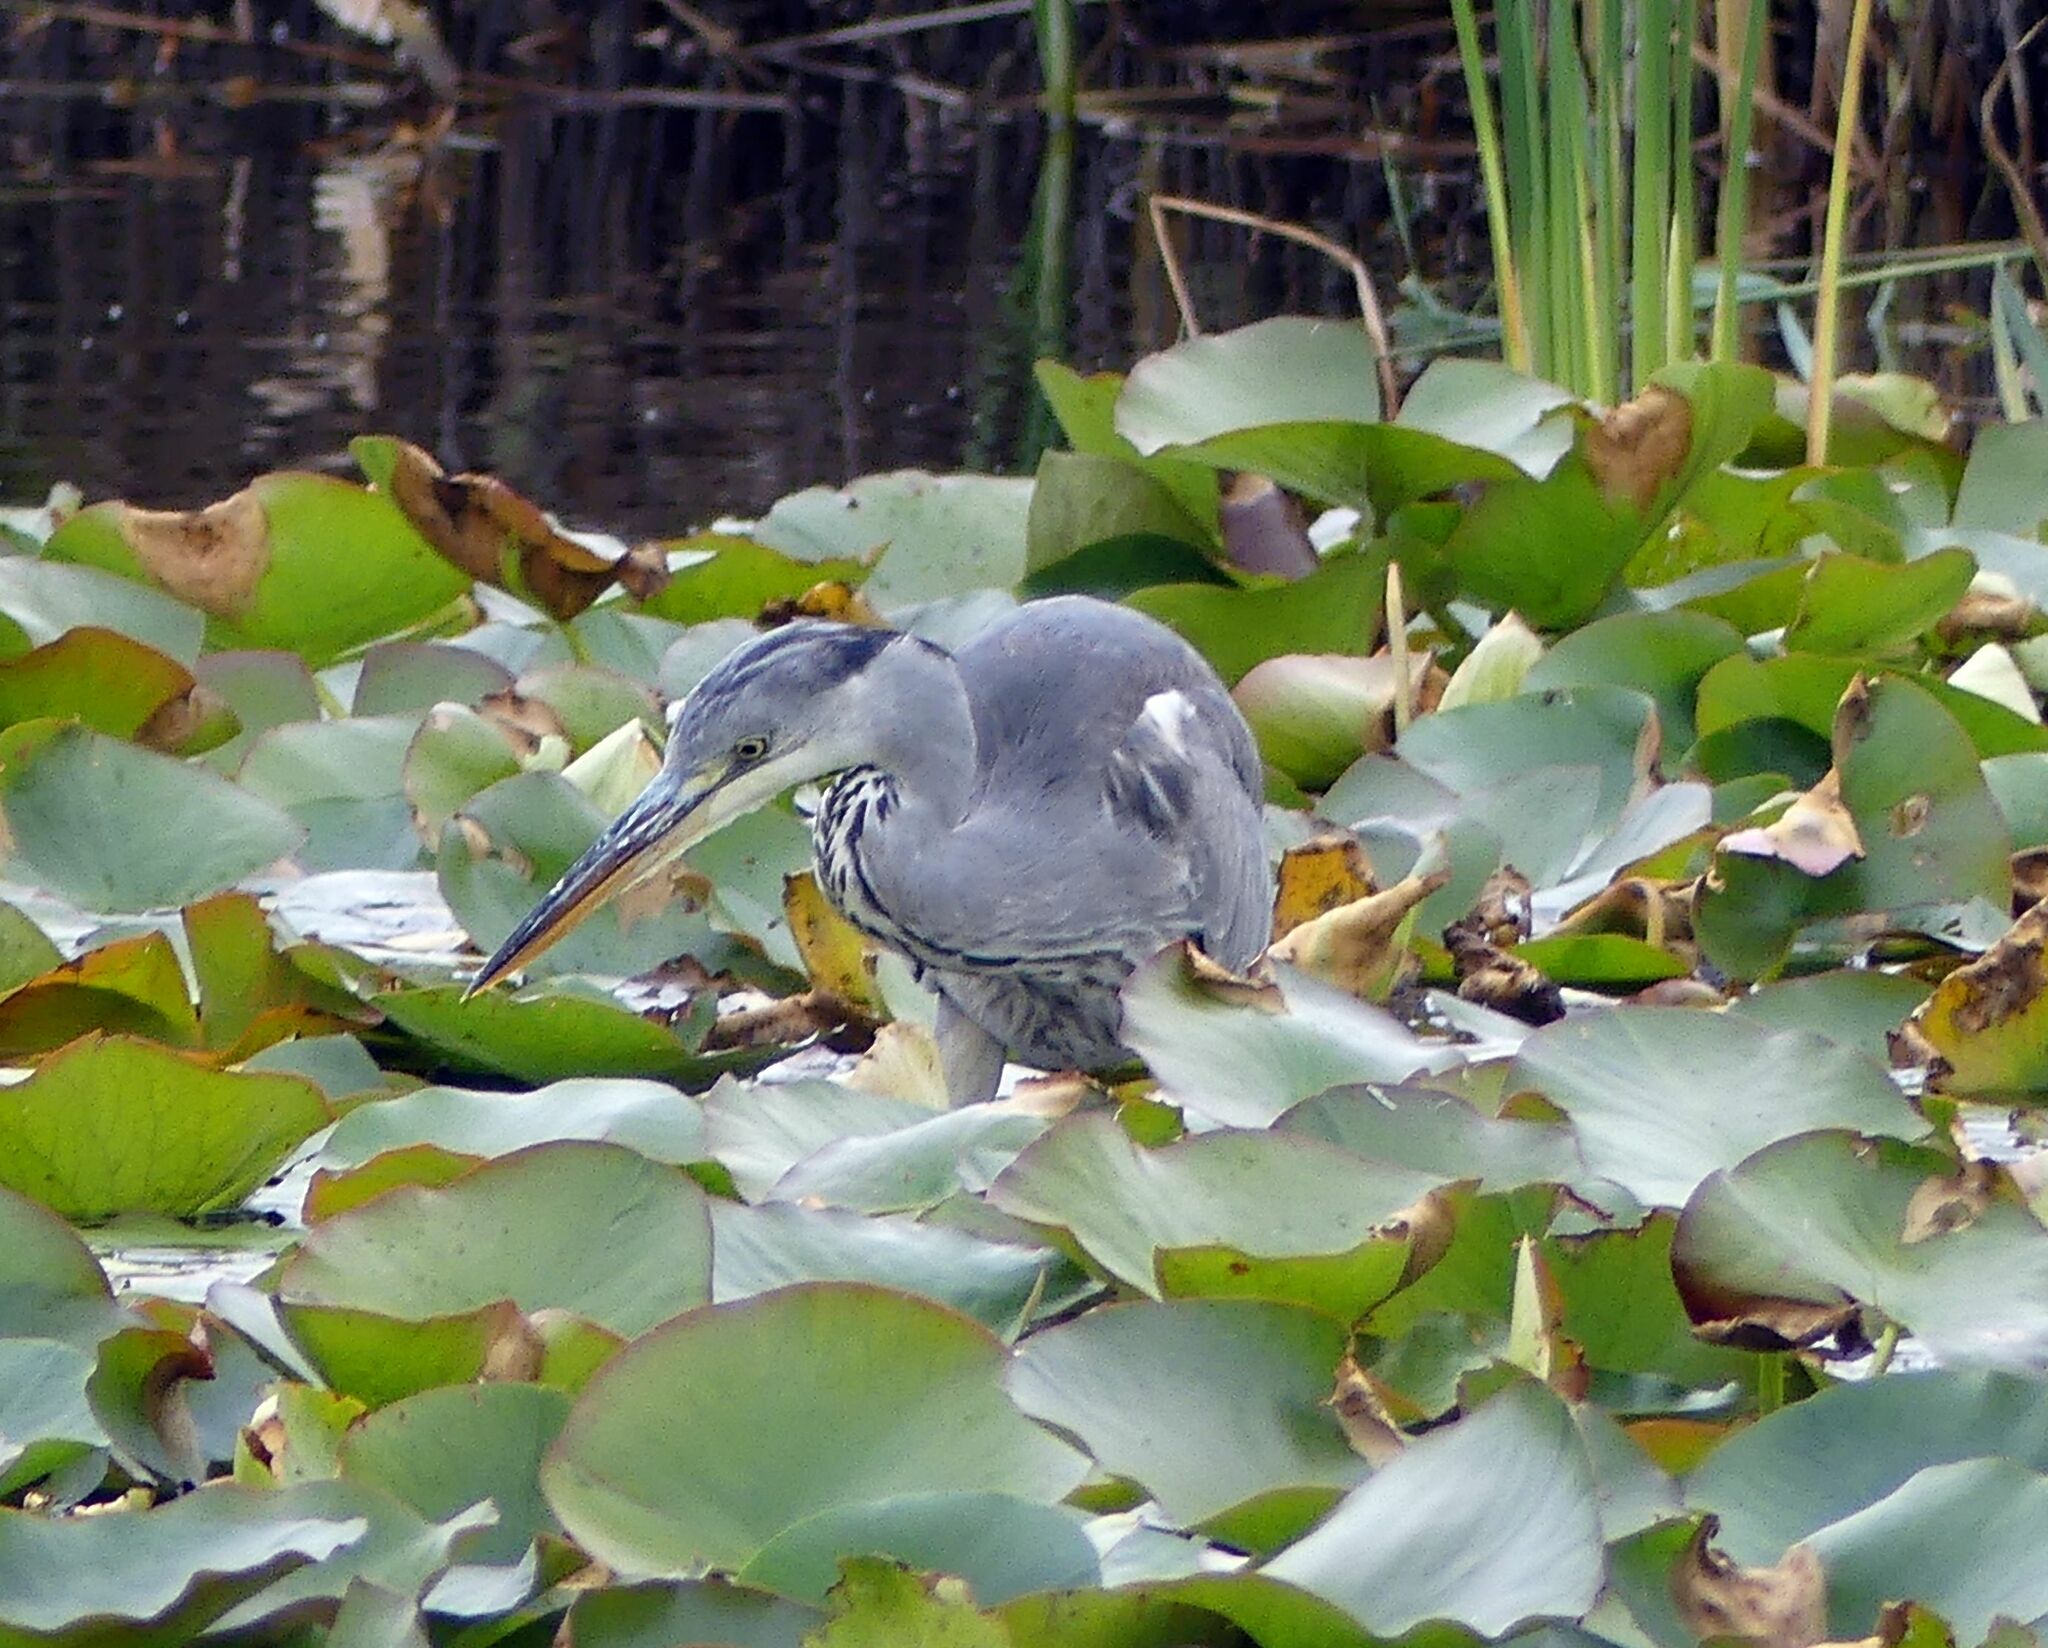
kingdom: Animalia
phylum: Chordata
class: Aves
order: Pelecaniformes
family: Ardeidae
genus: Ardea
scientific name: Ardea cinerea
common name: Grey heron
